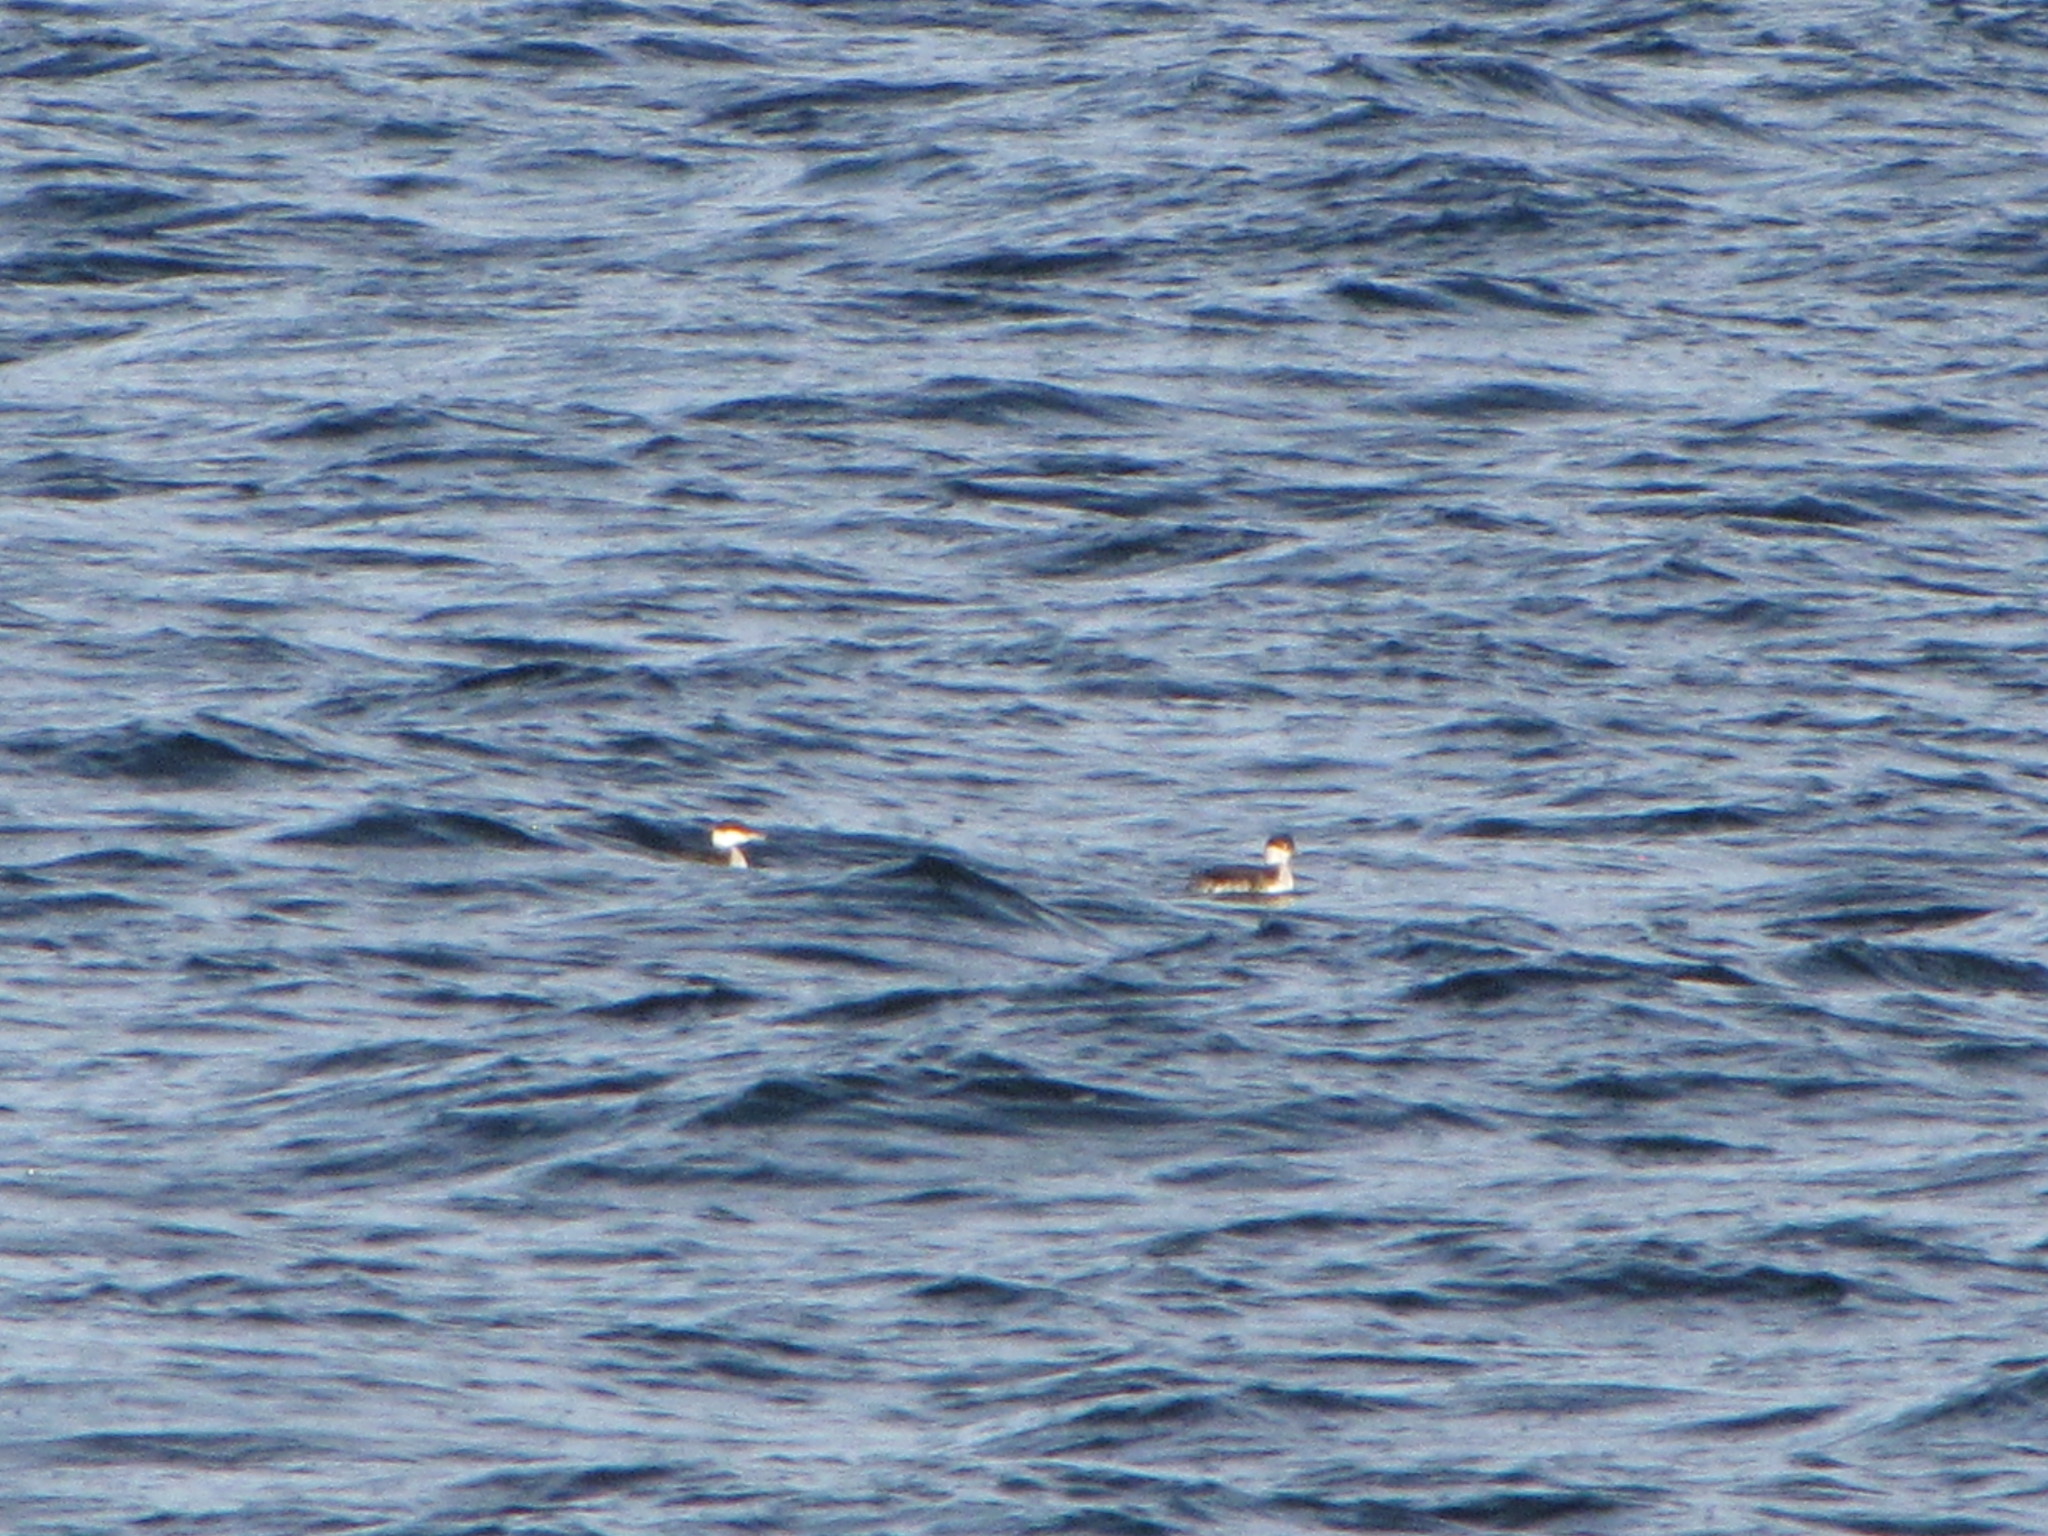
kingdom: Animalia
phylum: Chordata
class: Aves
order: Podicipediformes
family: Podicipedidae
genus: Podiceps
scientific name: Podiceps auritus
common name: Horned grebe
